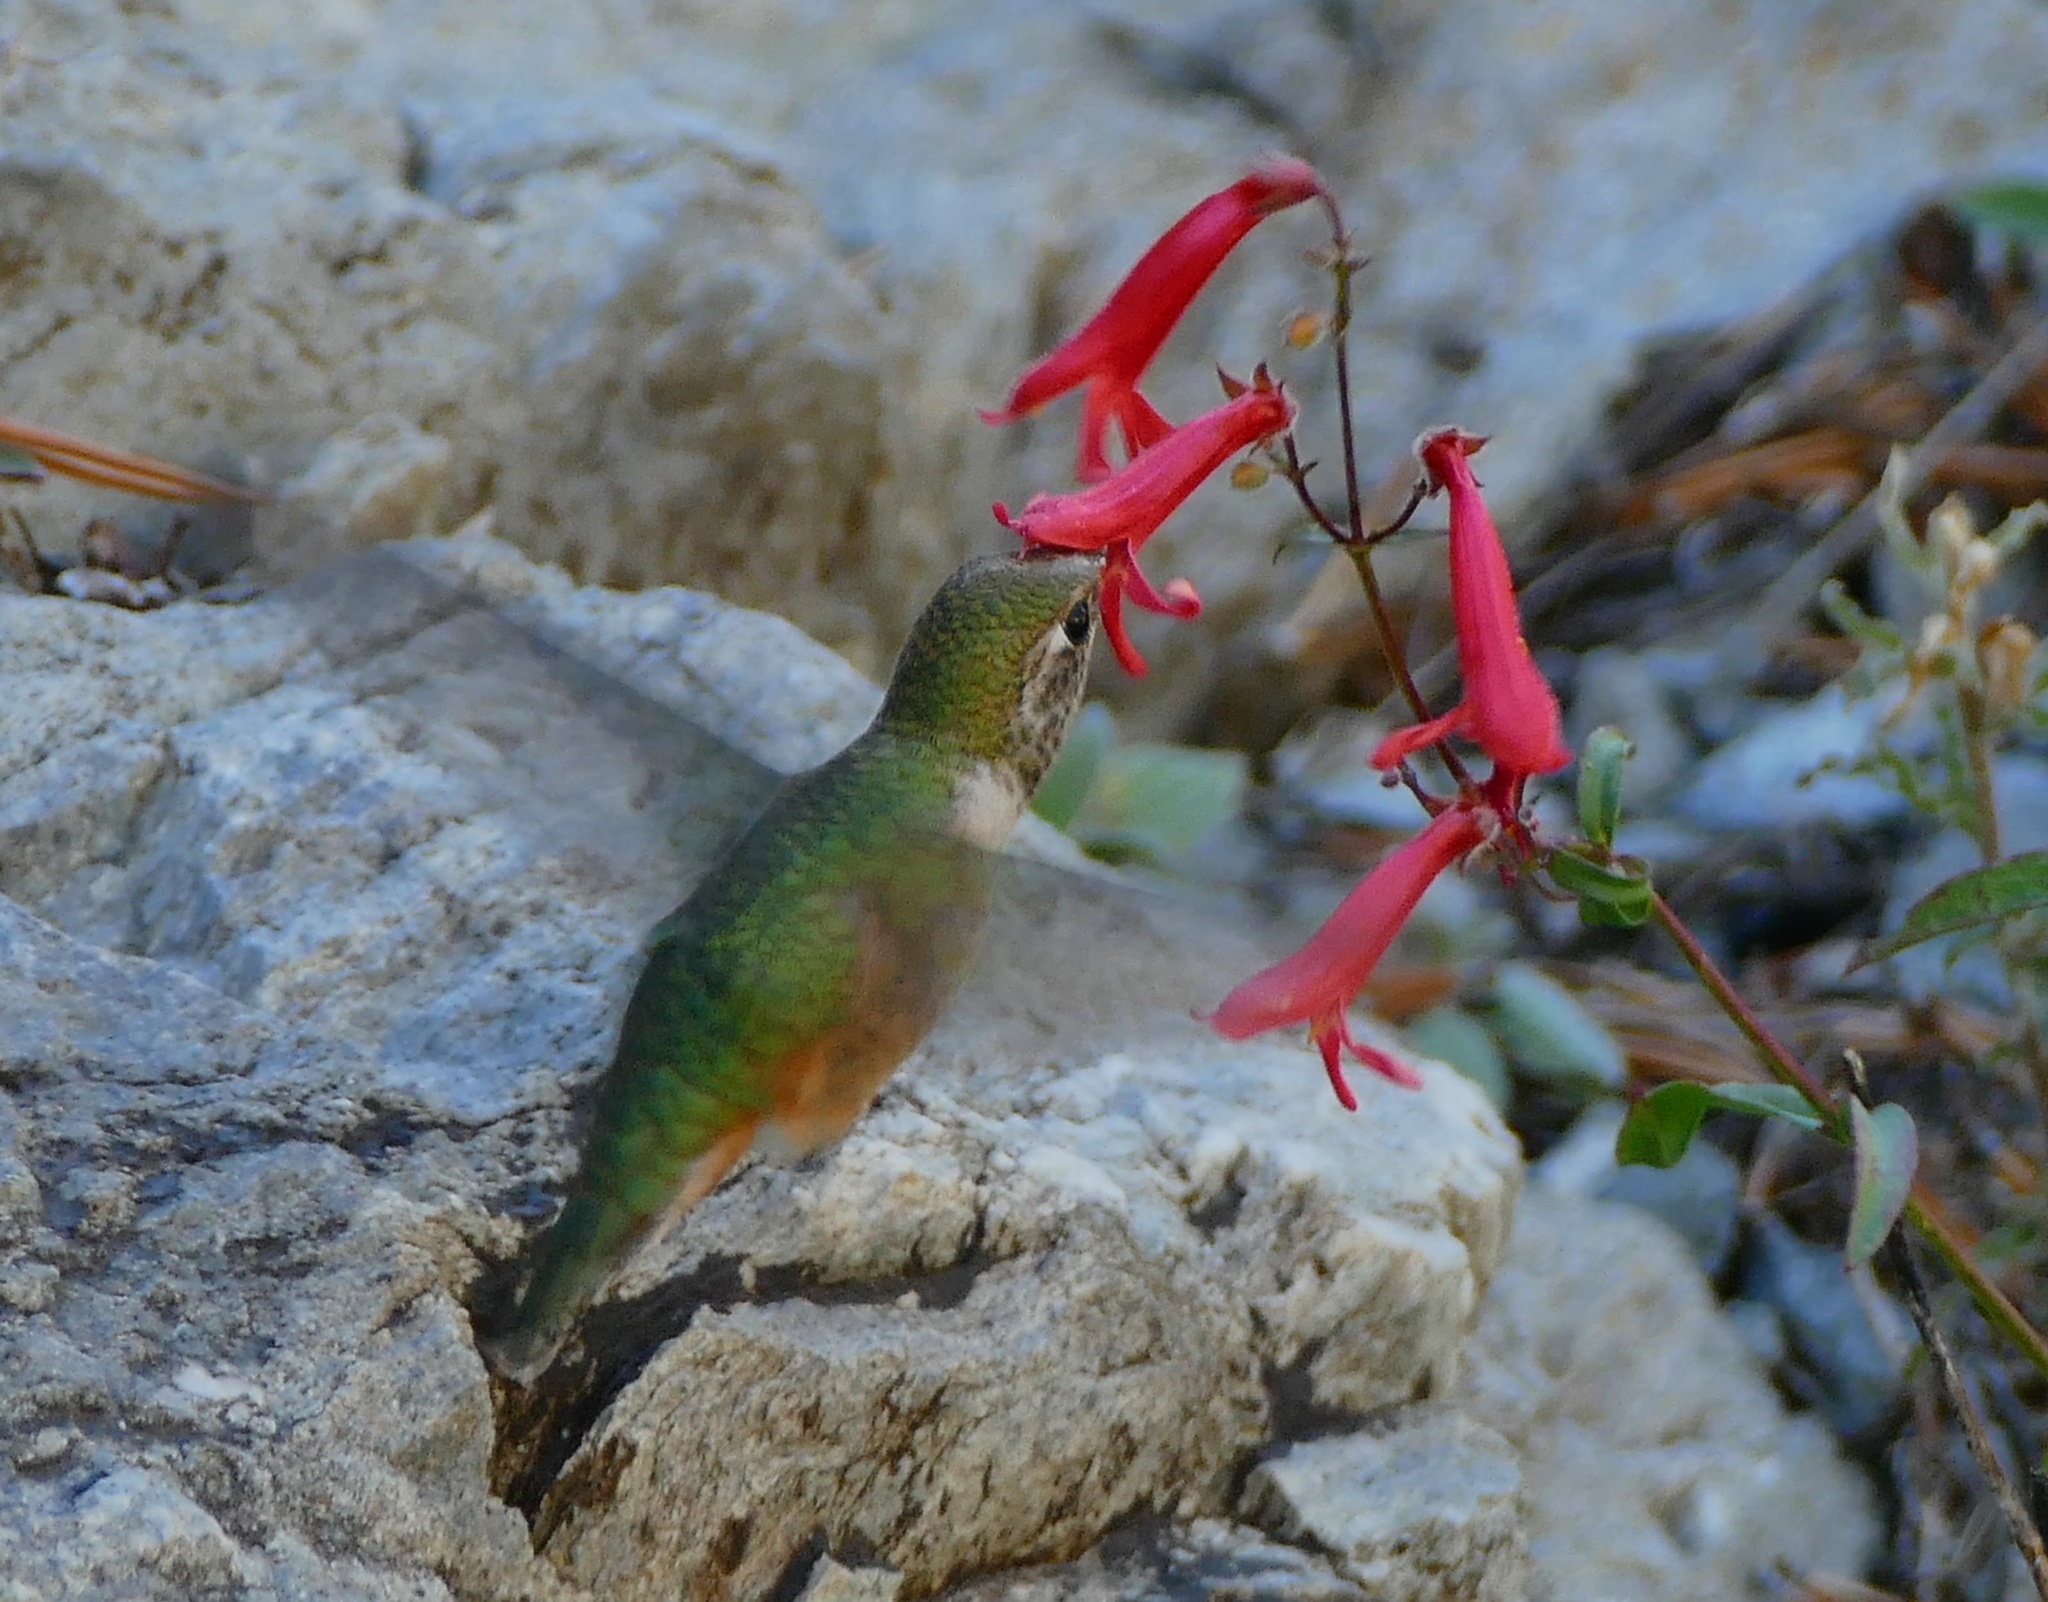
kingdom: Animalia
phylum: Chordata
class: Aves
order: Apodiformes
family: Trochilidae
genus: Selasphorus
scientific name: Selasphorus rufus
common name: Rufous hummingbird
